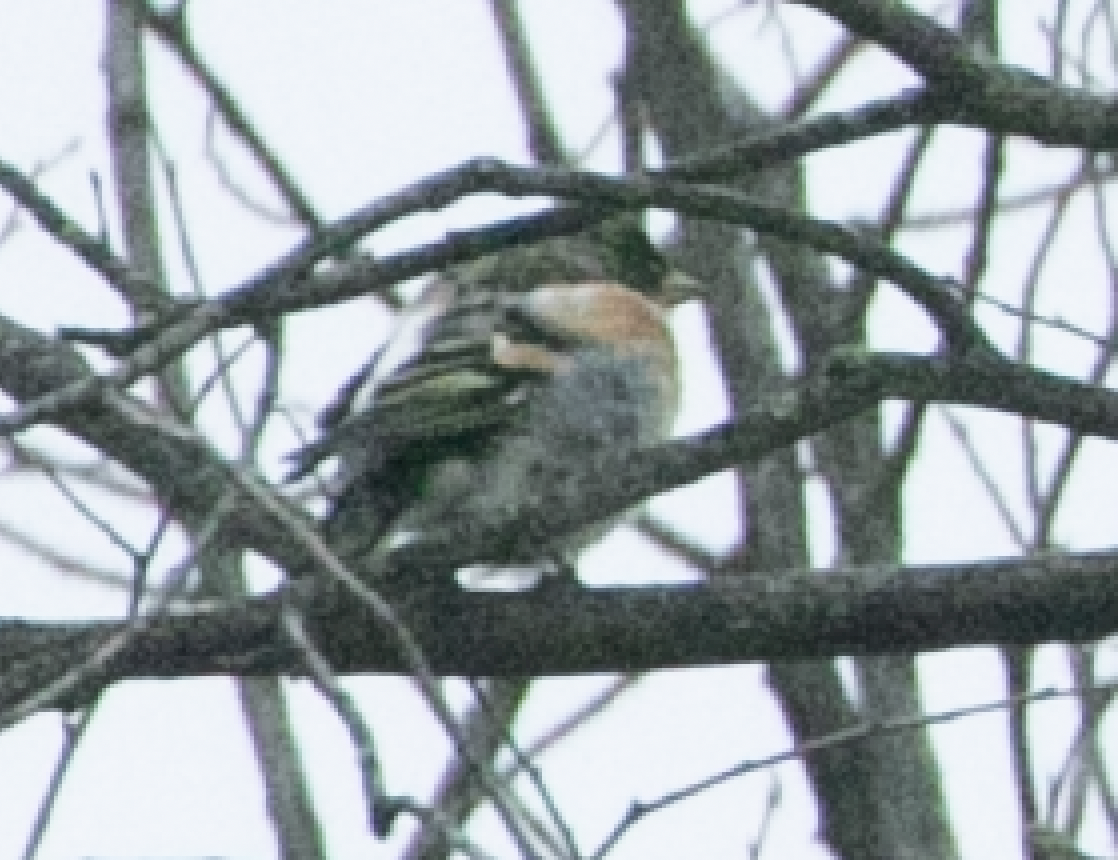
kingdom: Animalia
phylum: Chordata
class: Aves
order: Passeriformes
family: Fringillidae
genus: Fringilla
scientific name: Fringilla montifringilla
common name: Brambling
